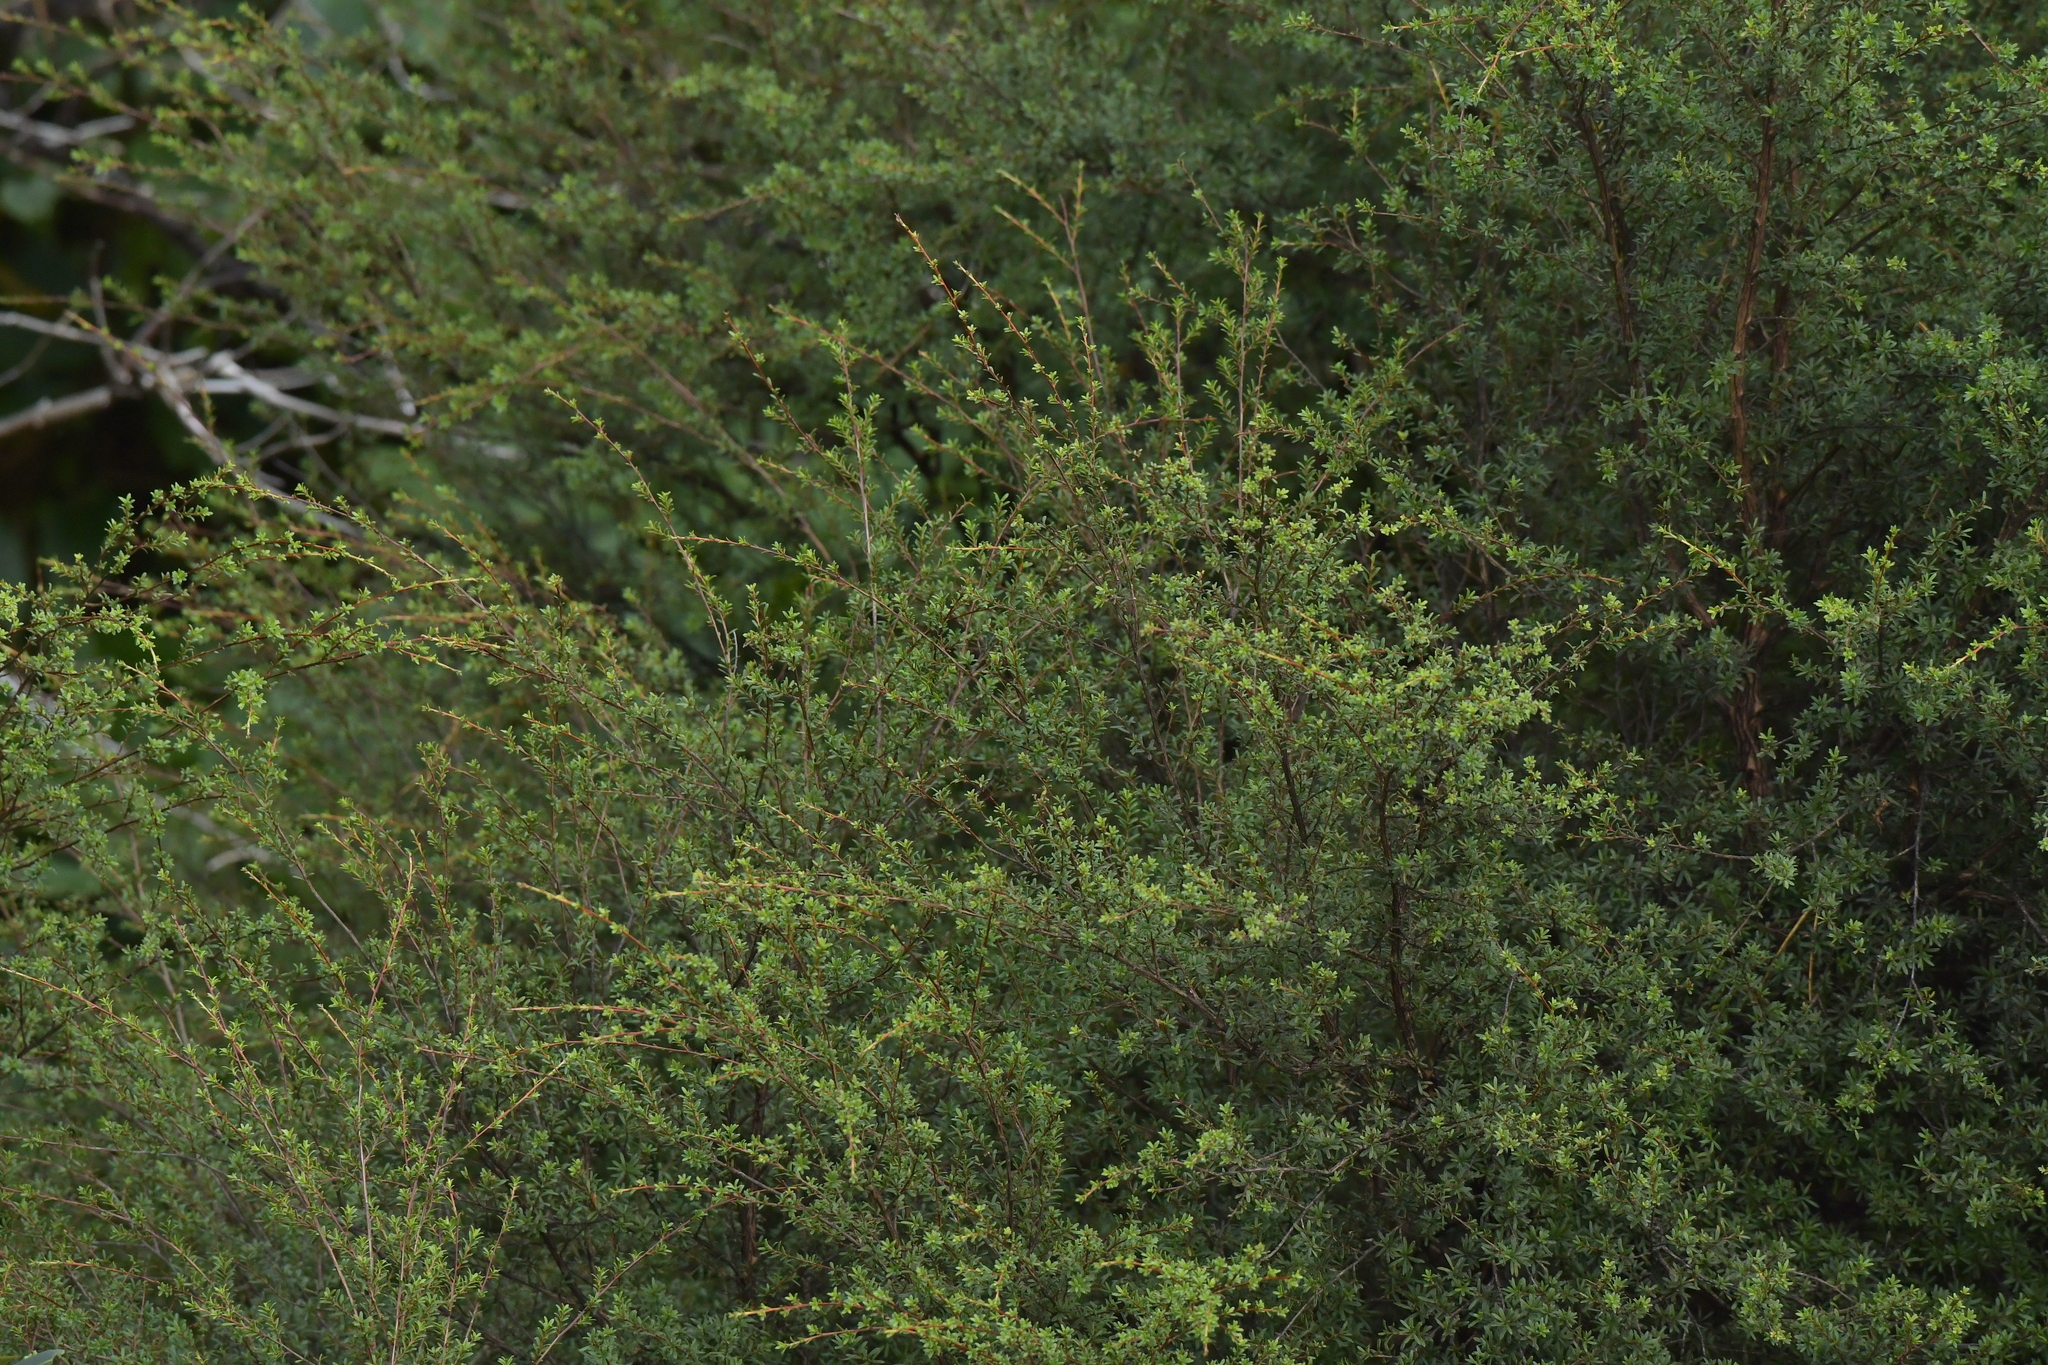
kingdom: Plantae
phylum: Tracheophyta
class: Magnoliopsida
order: Myrtales
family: Myrtaceae
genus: Leptospermum
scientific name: Leptospermum scoparium
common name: Broom tea-tree
